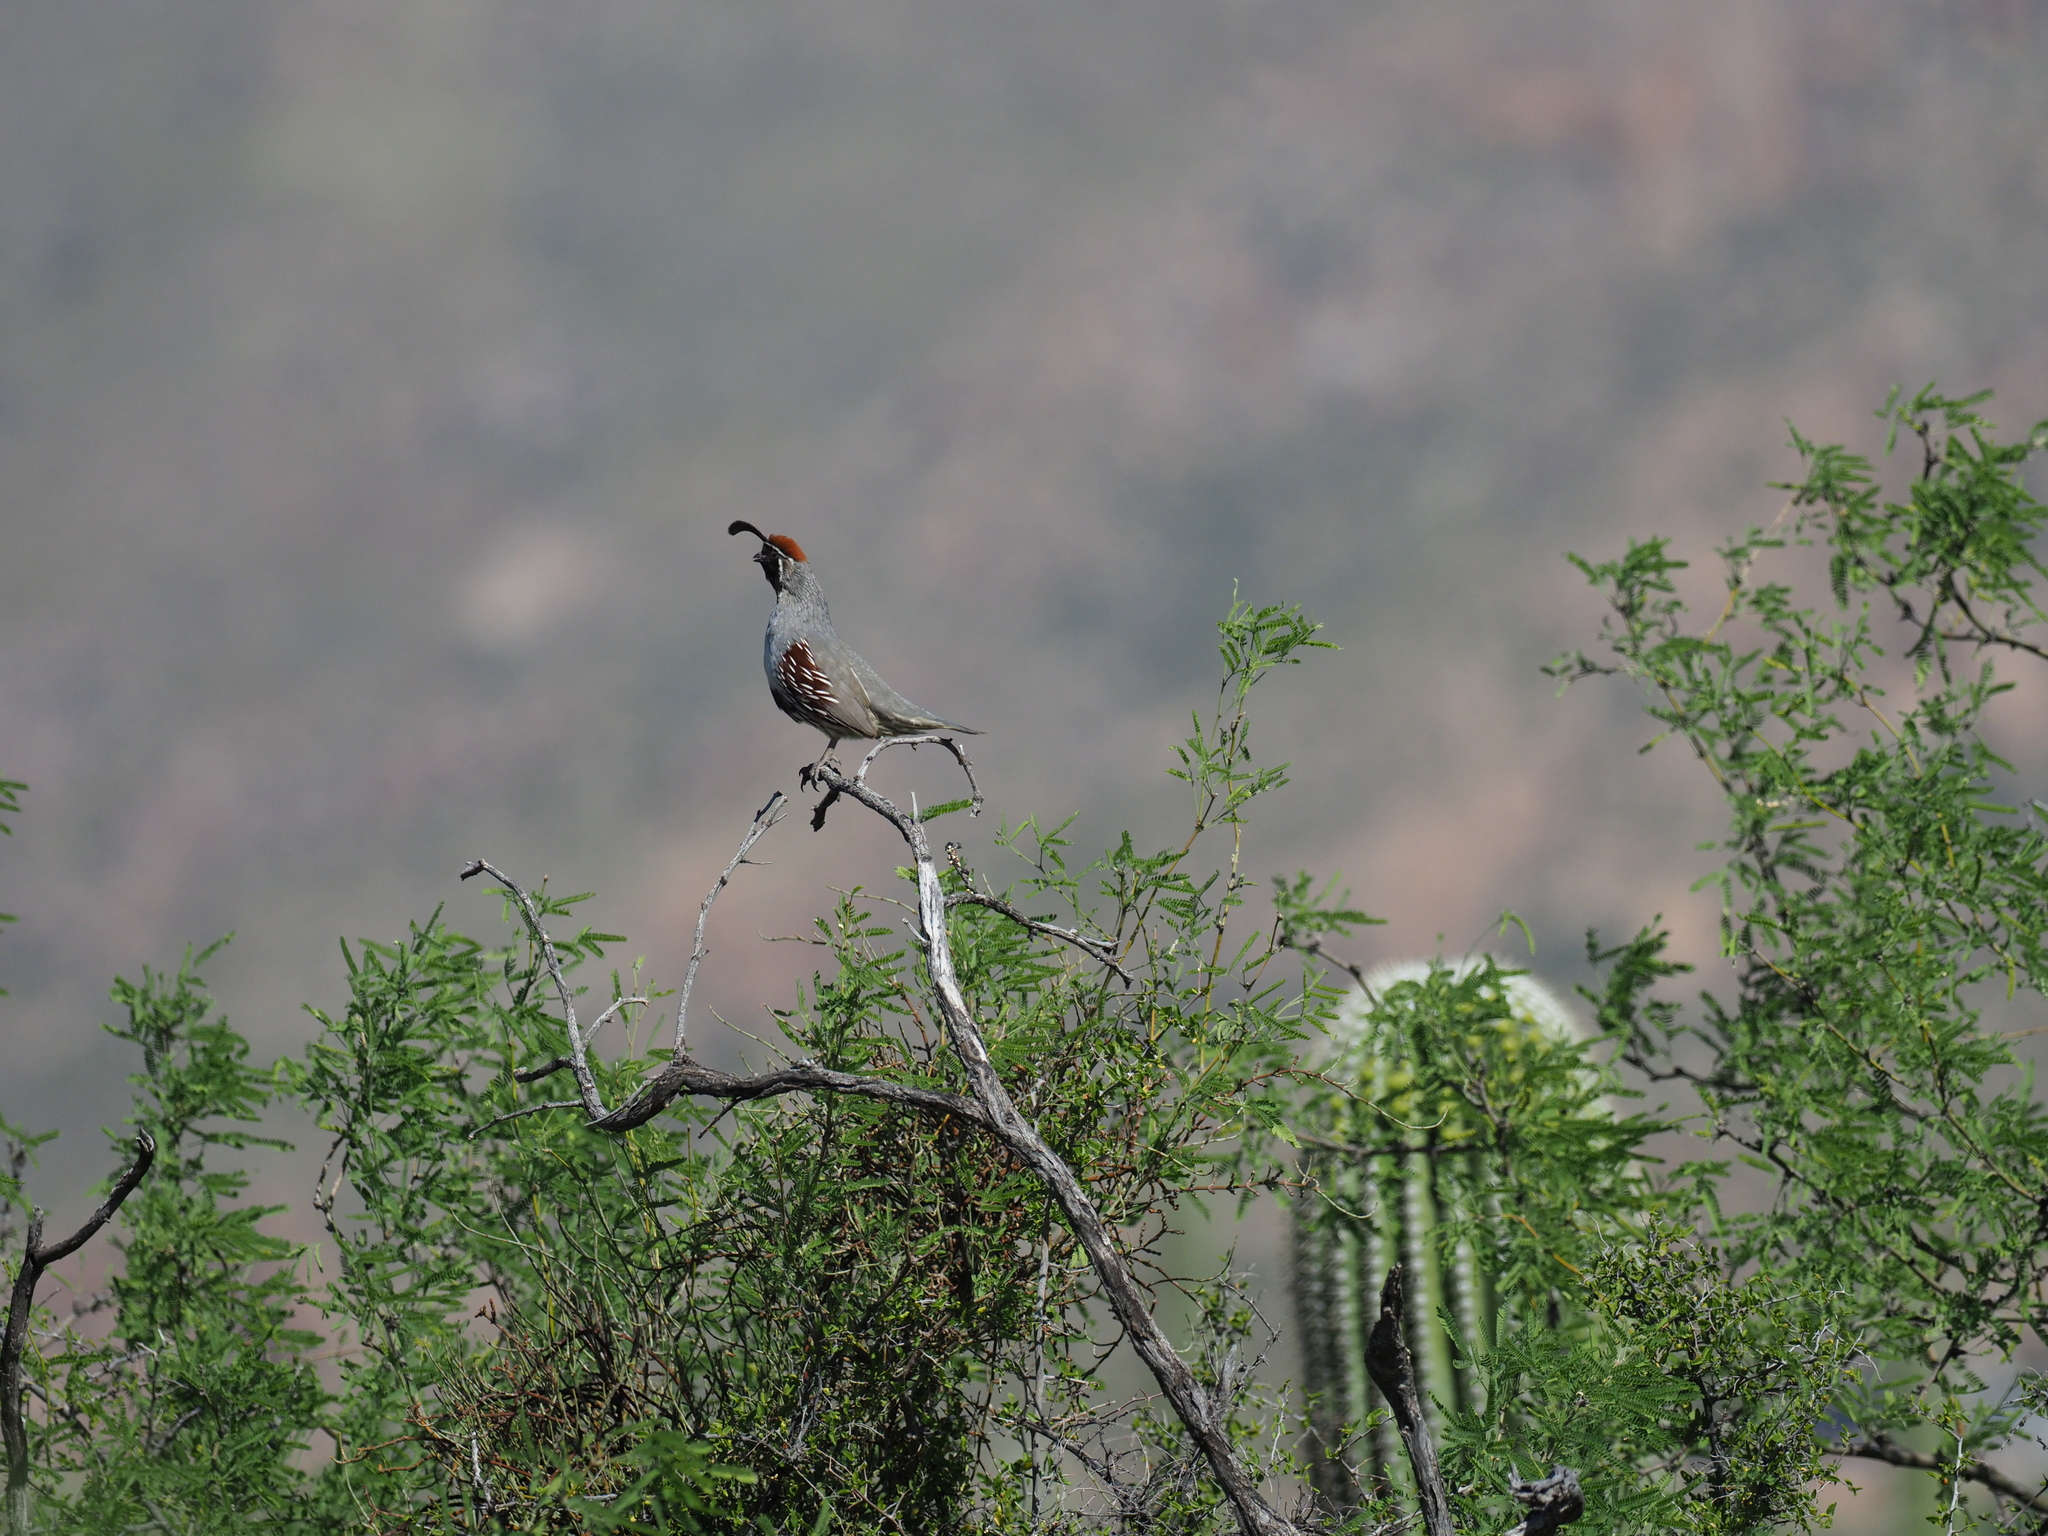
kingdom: Animalia
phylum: Chordata
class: Aves
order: Galliformes
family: Odontophoridae
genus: Callipepla
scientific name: Callipepla gambelii
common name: Gambel's quail
